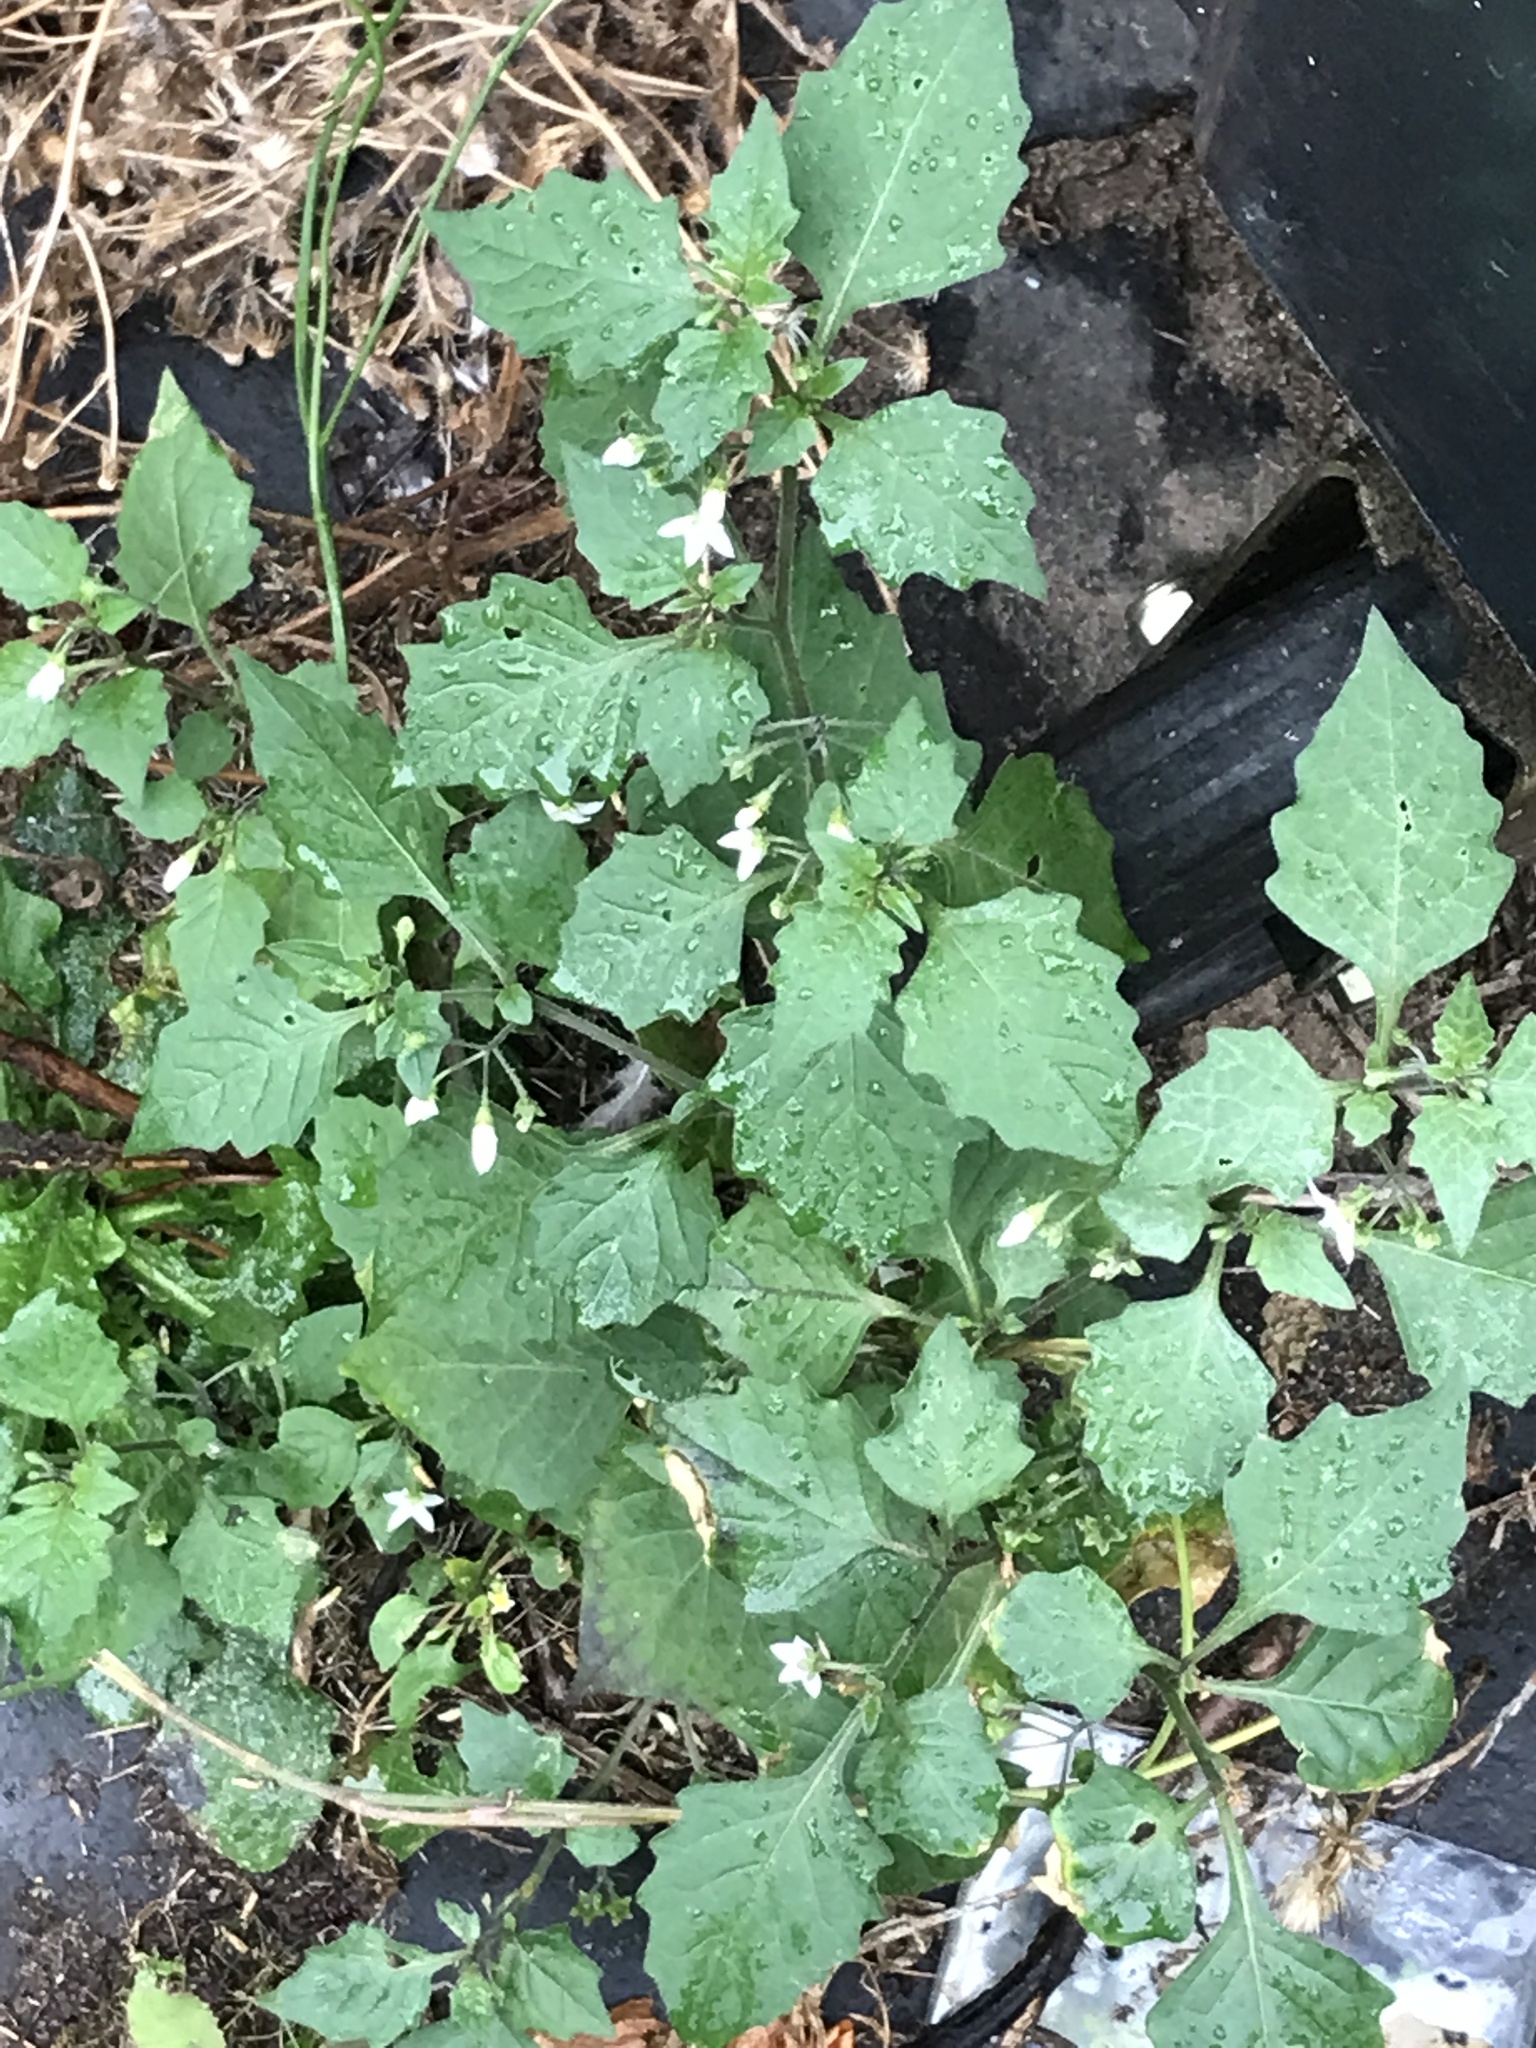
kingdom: Plantae
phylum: Tracheophyta
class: Magnoliopsida
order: Solanales
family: Solanaceae
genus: Solanum
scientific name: Solanum nigrum
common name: Black nightshade
